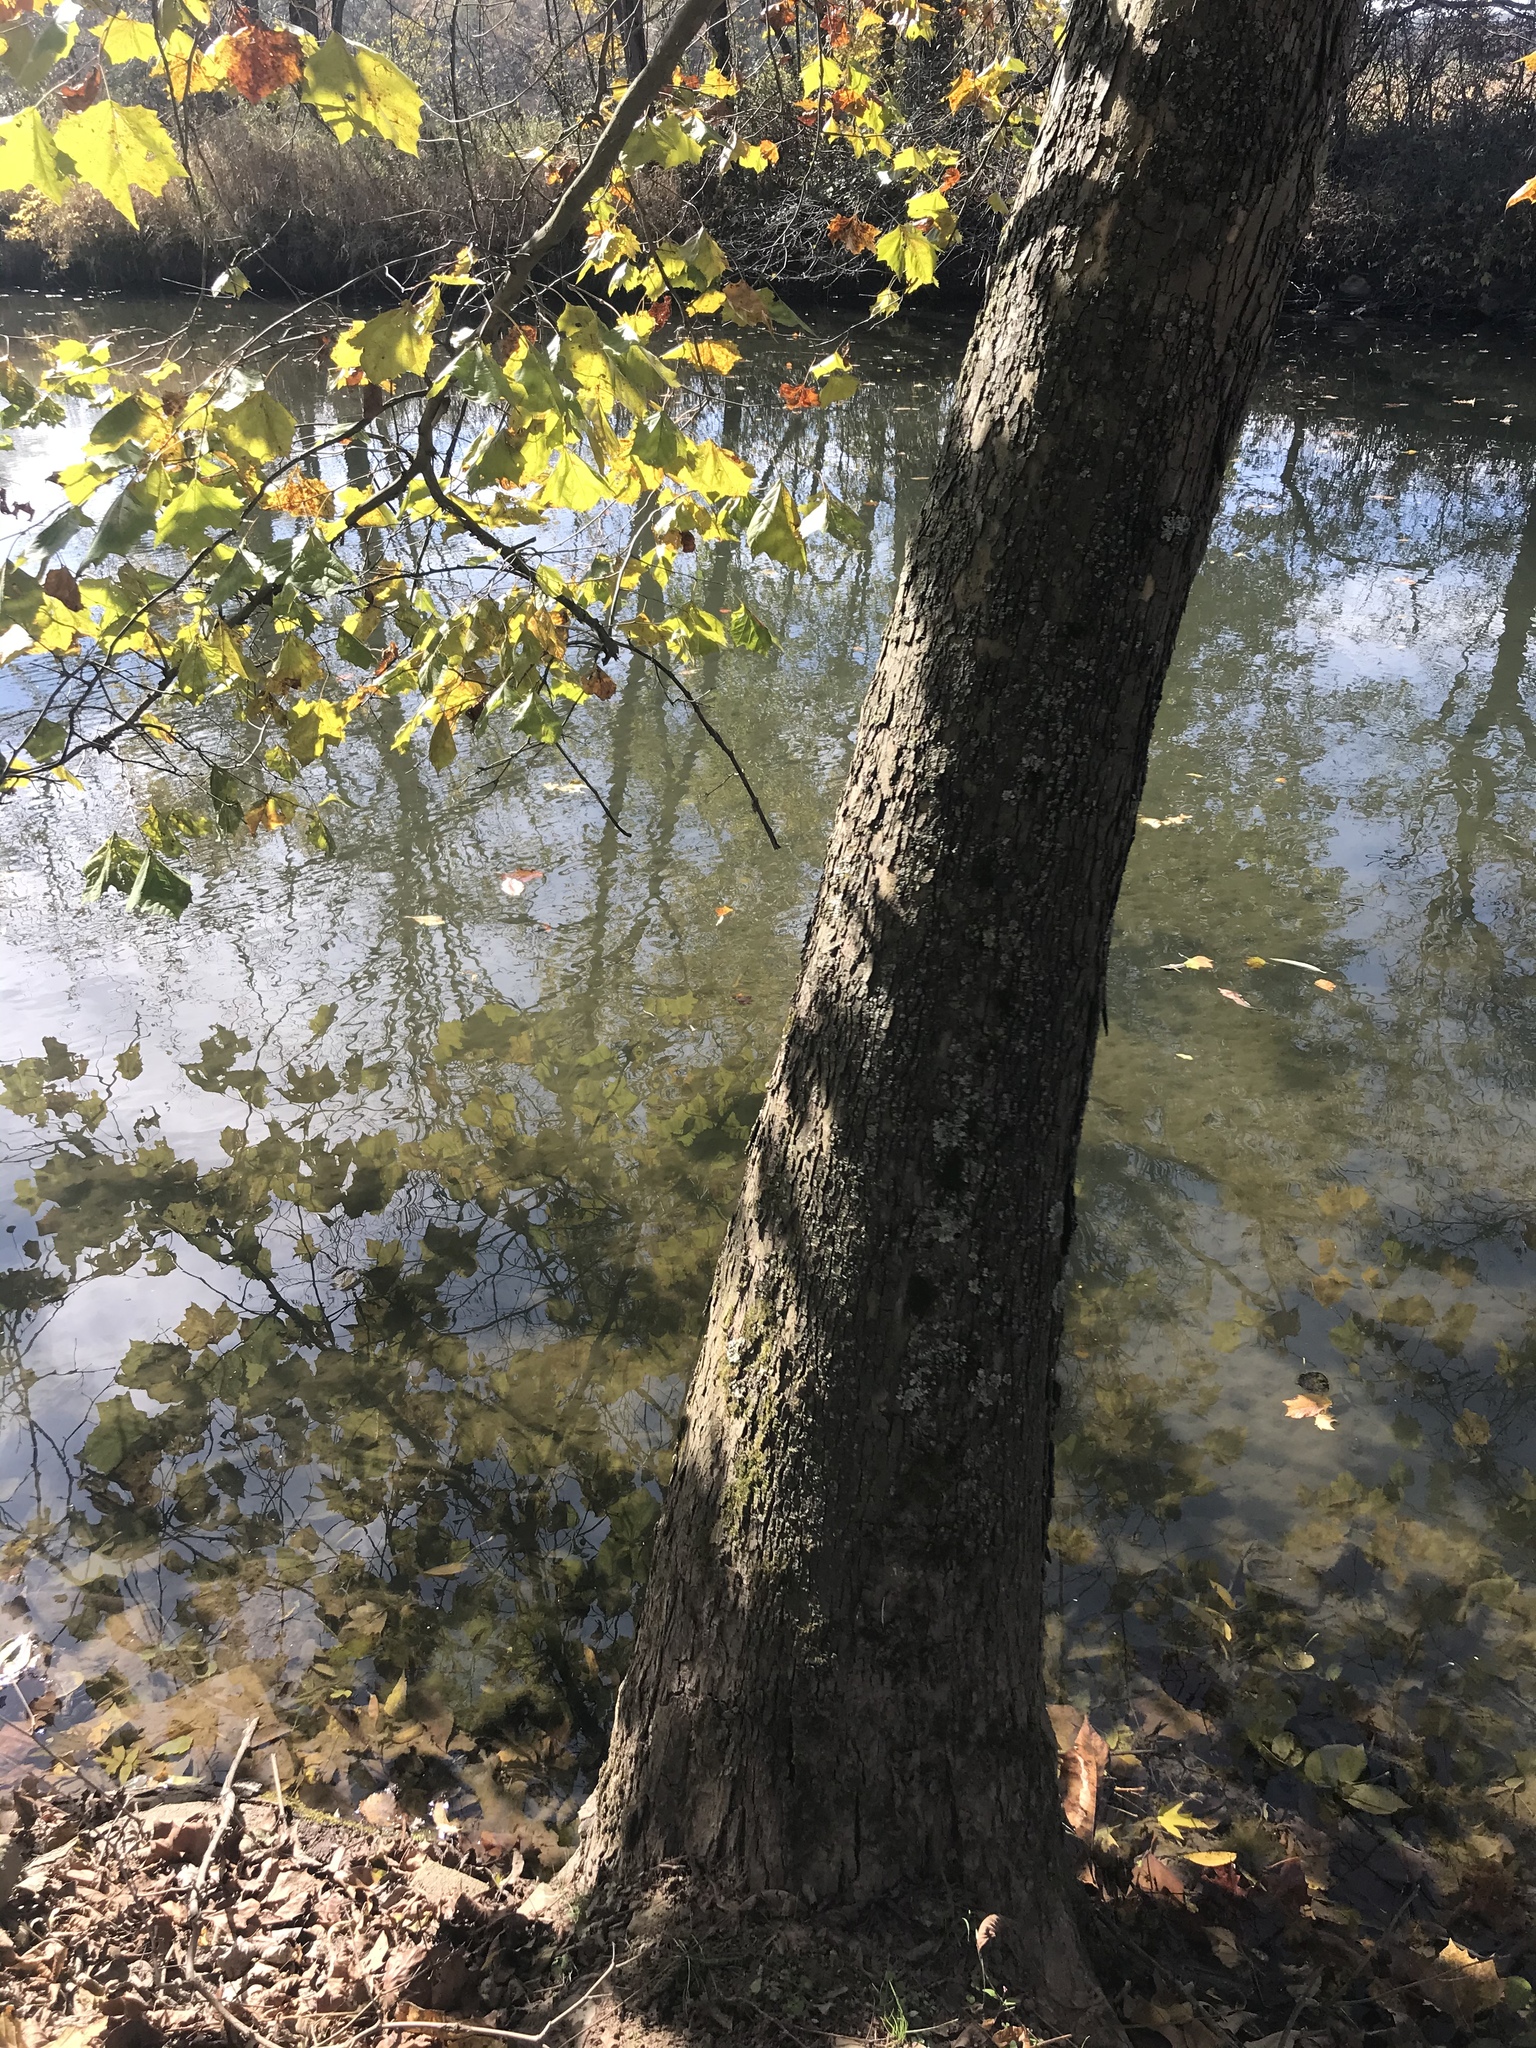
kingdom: Plantae
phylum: Tracheophyta
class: Magnoliopsida
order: Proteales
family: Platanaceae
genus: Platanus
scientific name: Platanus occidentalis
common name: American sycamore
